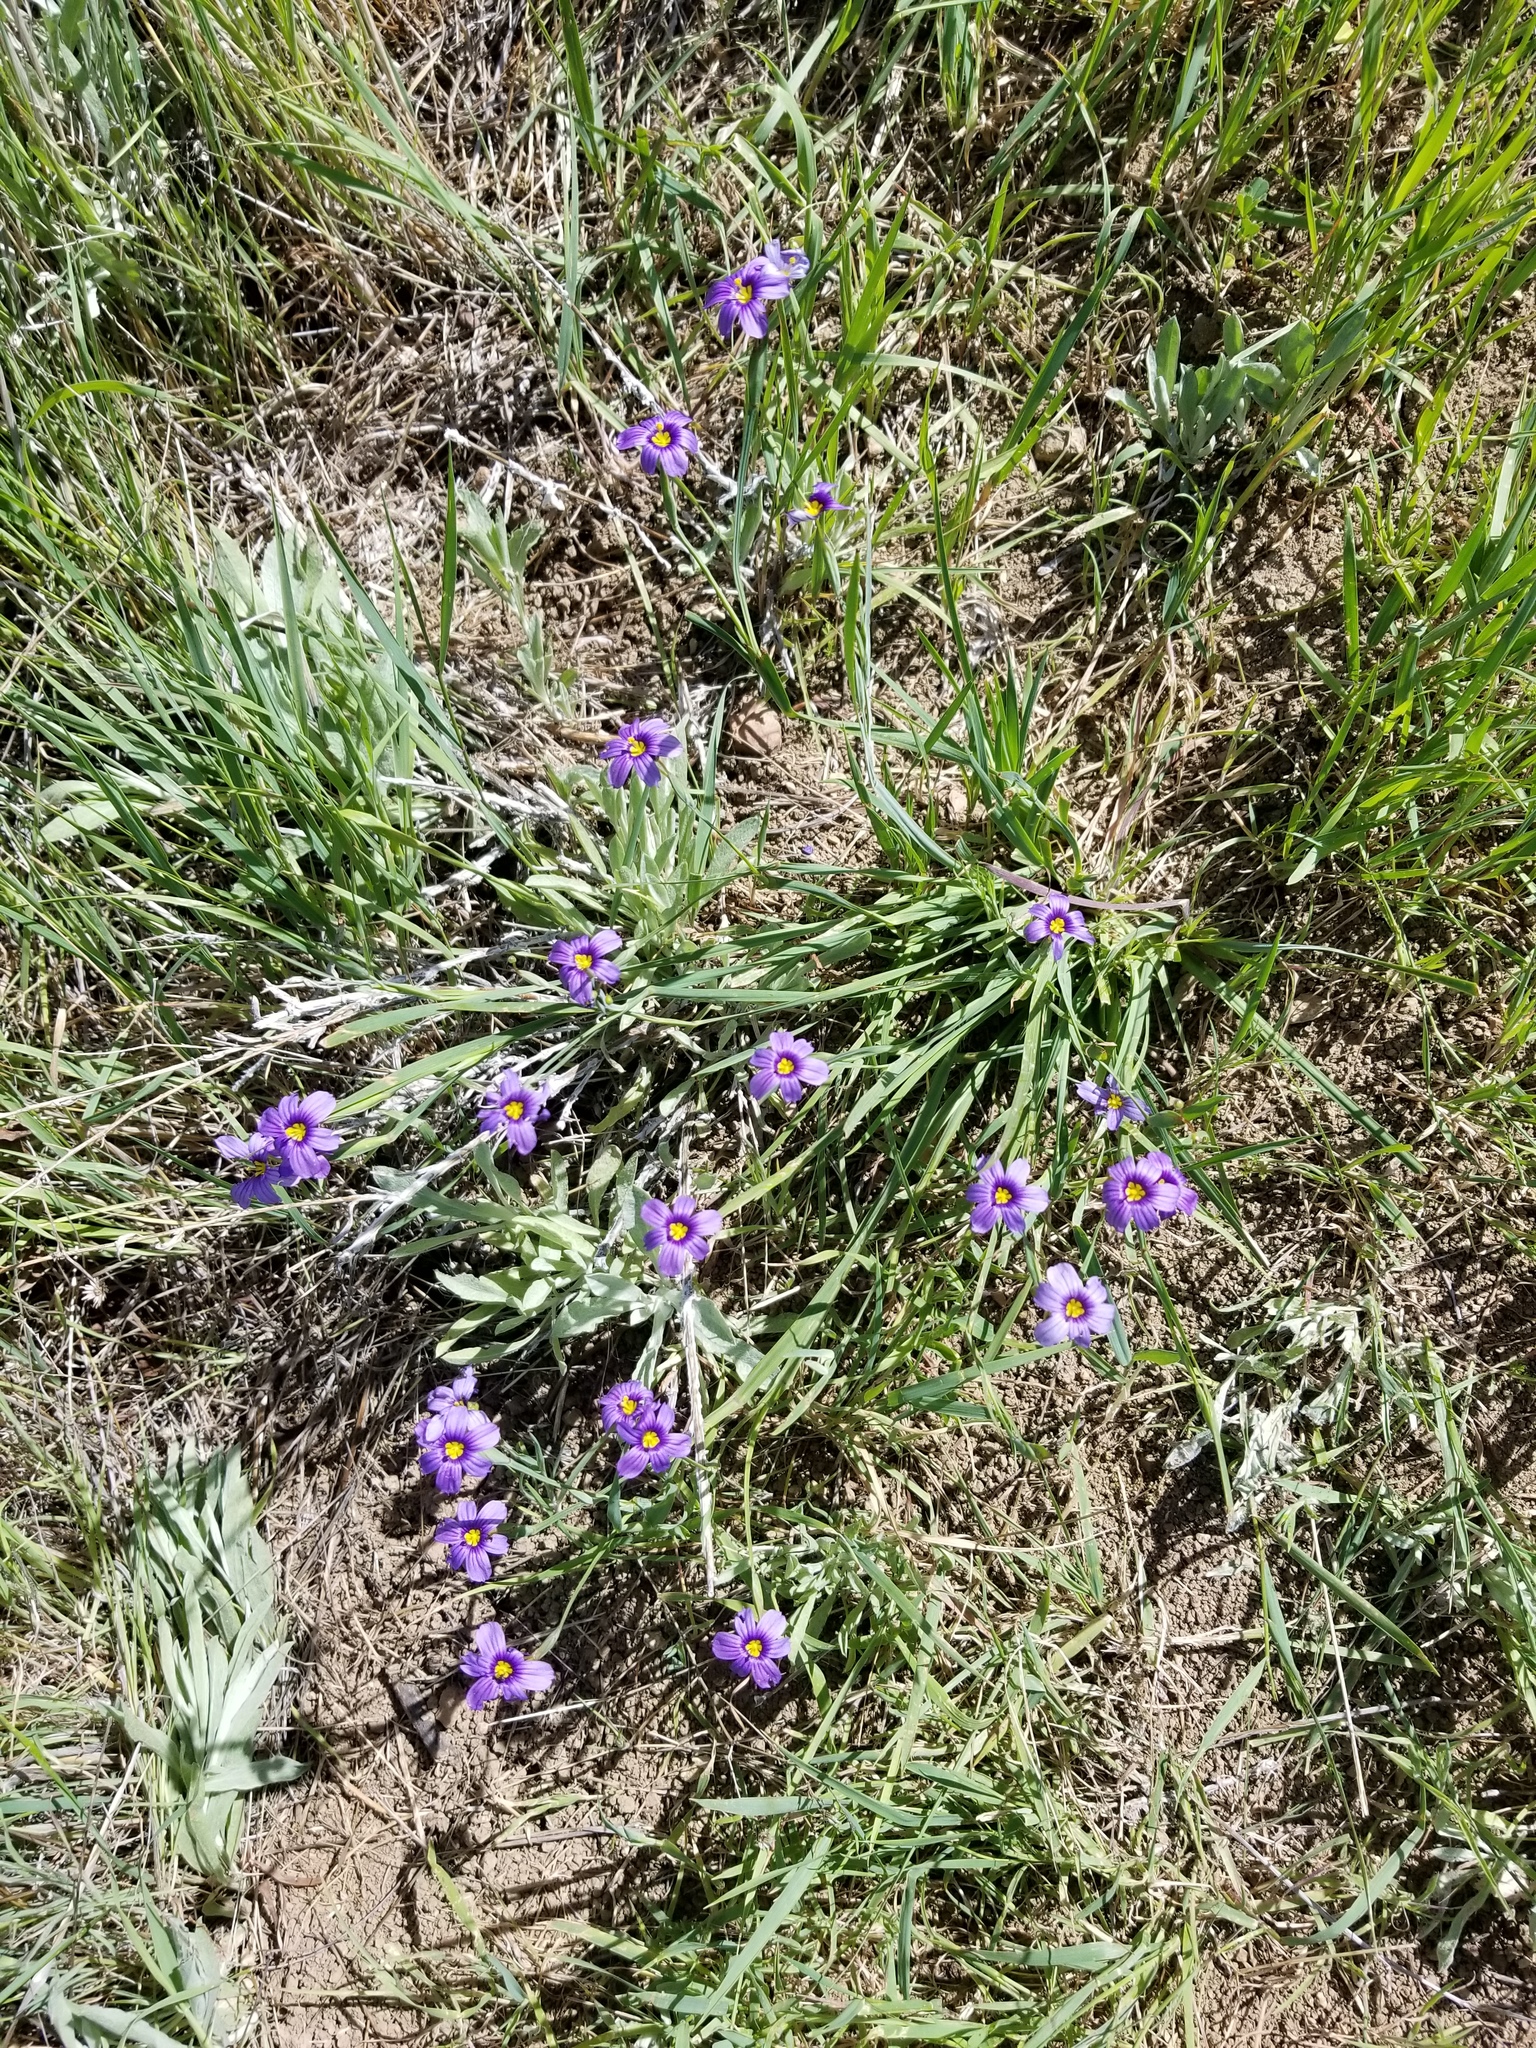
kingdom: Plantae
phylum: Tracheophyta
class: Liliopsida
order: Asparagales
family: Iridaceae
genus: Sisyrinchium
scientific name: Sisyrinchium bellum
